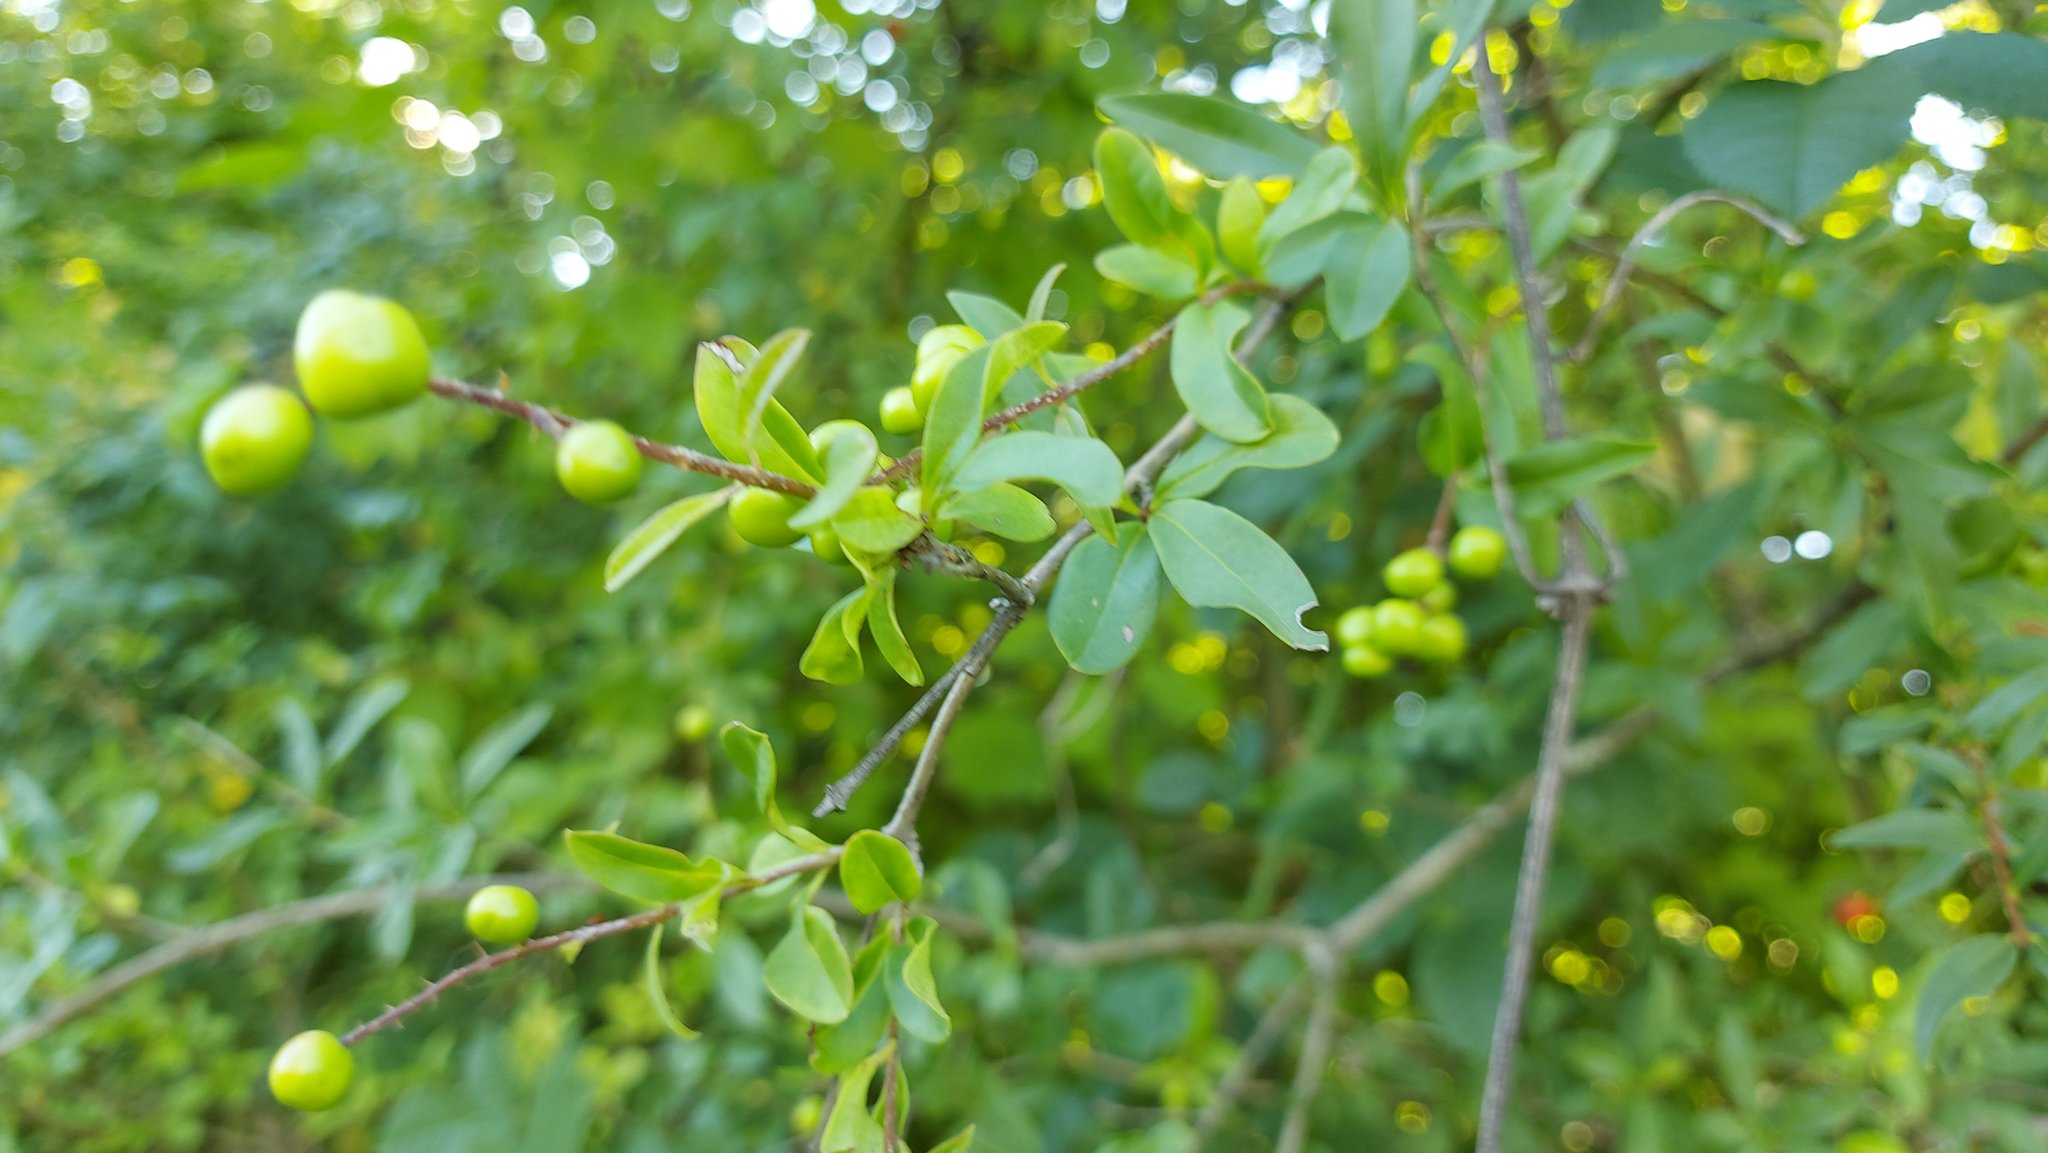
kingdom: Plantae
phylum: Tracheophyta
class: Magnoliopsida
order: Lamiales
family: Oleaceae
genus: Ligustrum
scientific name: Ligustrum vulgare
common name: Wild privet
